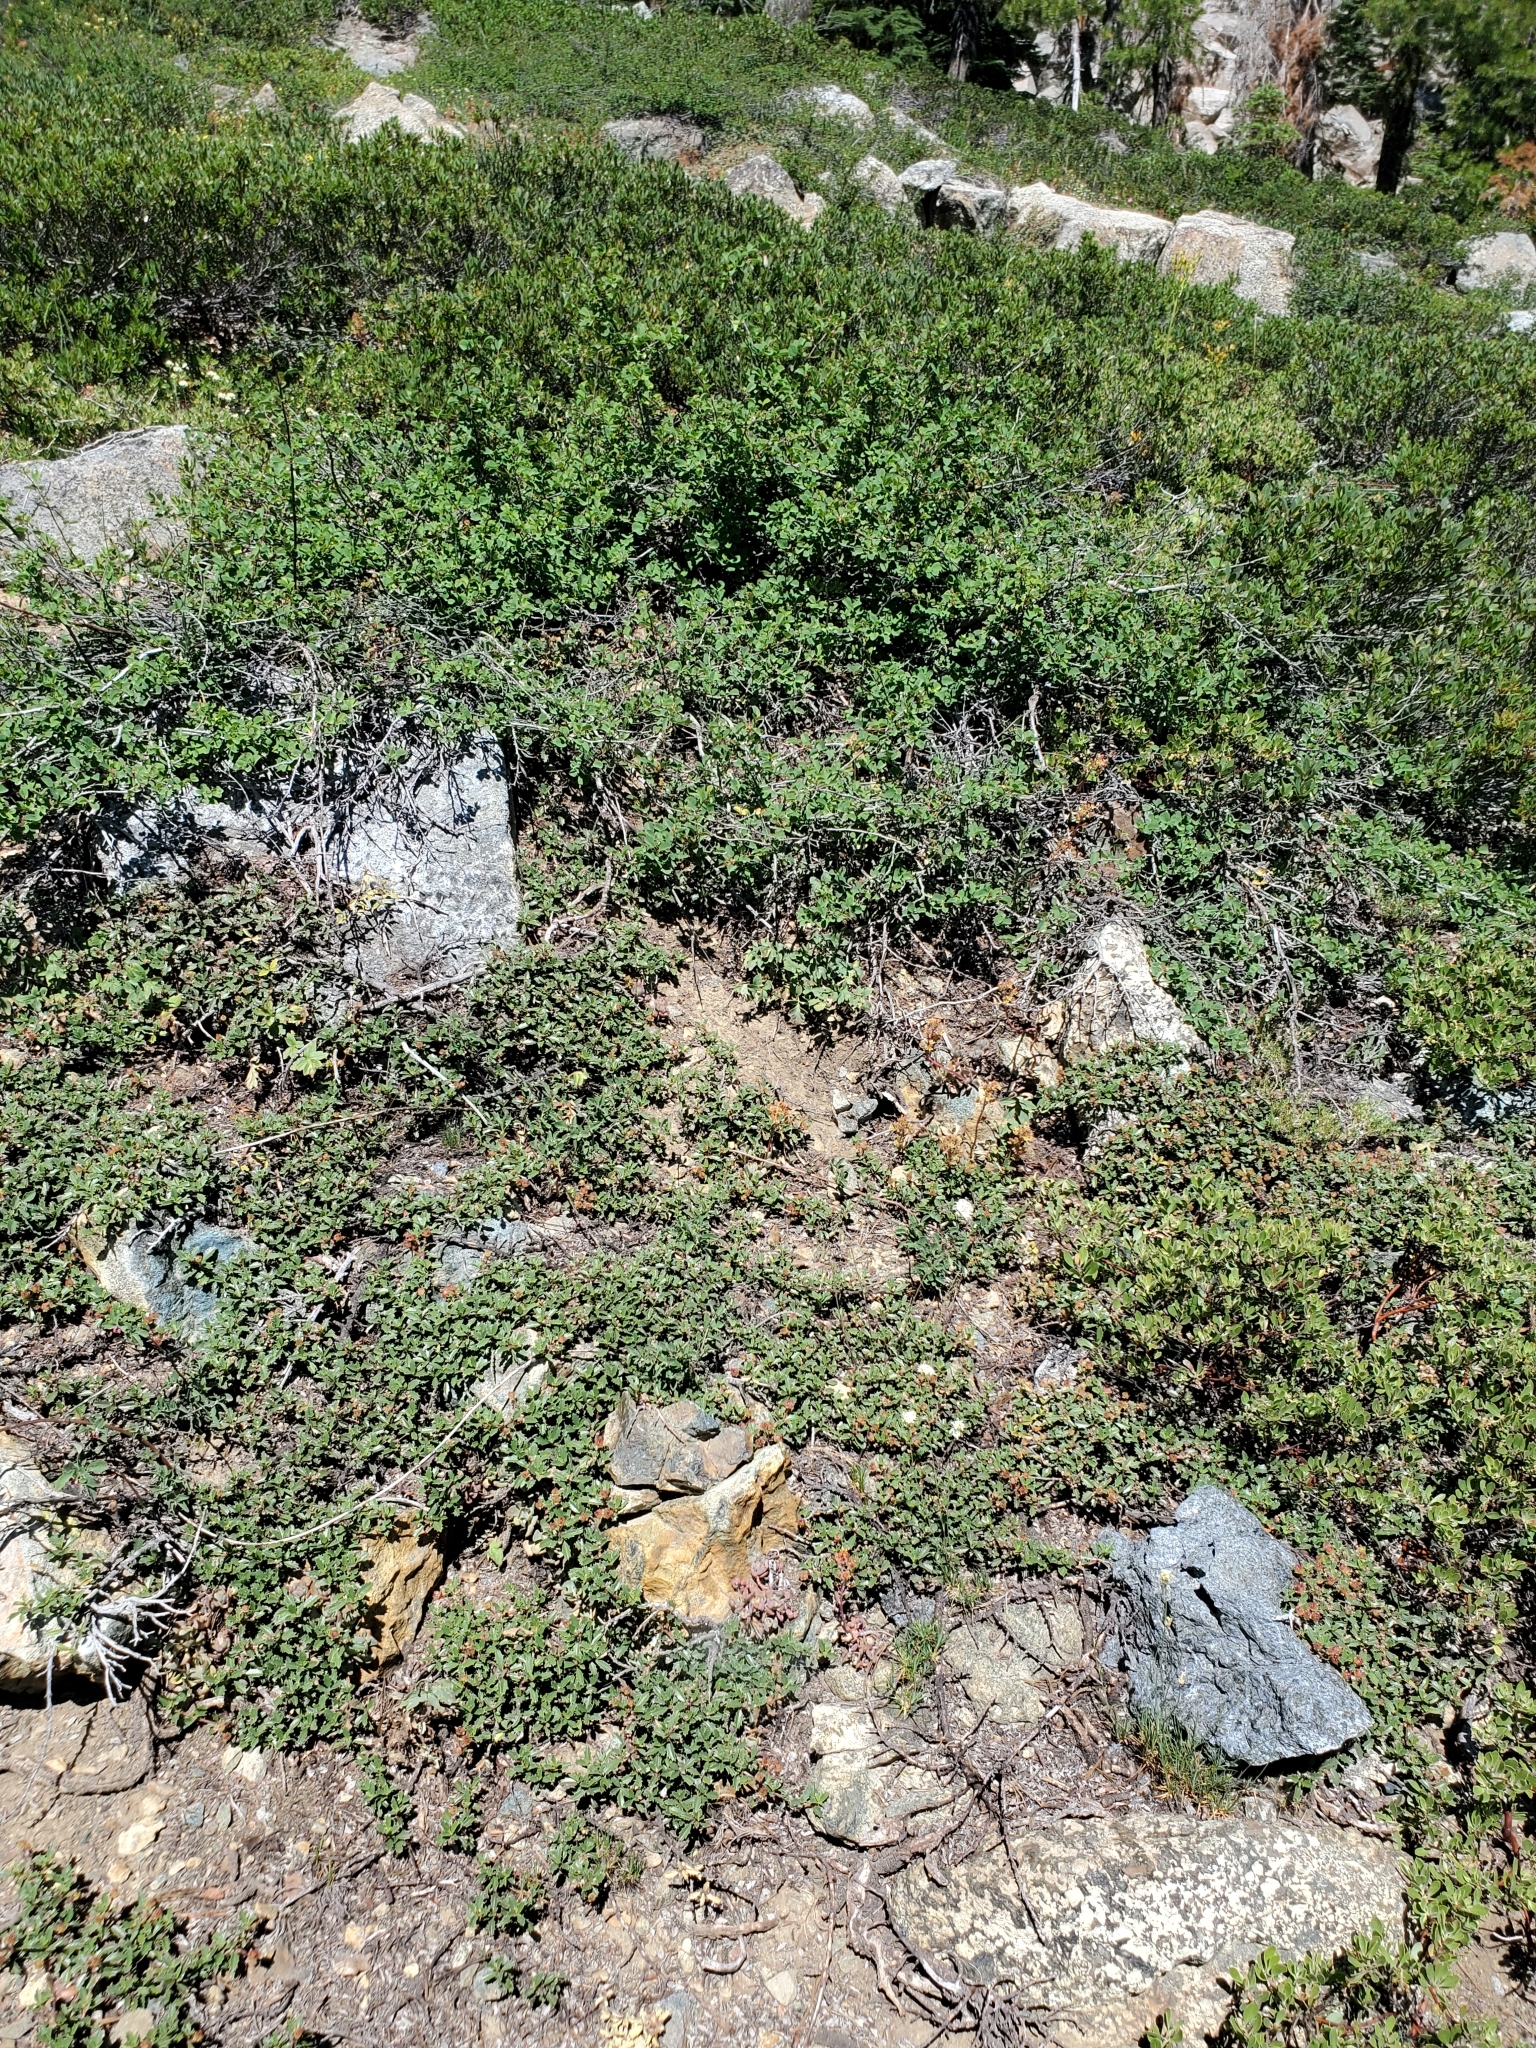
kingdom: Plantae
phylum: Tracheophyta
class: Magnoliopsida
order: Fagales
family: Fagaceae
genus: Quercus
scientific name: Quercus vacciniifolia
